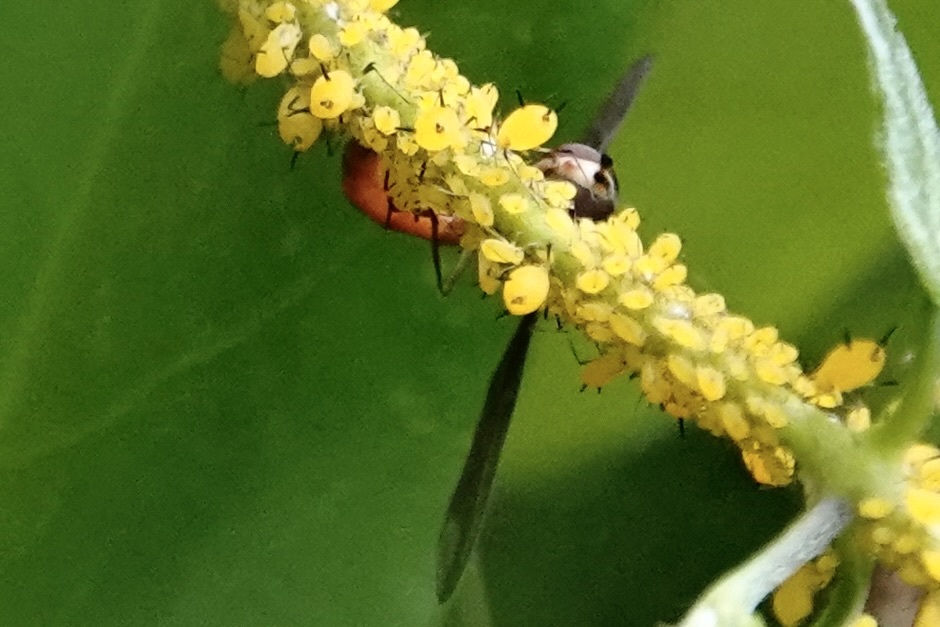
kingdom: Animalia
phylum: Arthropoda
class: Insecta
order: Diptera
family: Syrphidae
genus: Ocyptamus
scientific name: Ocyptamus fuscipennis
